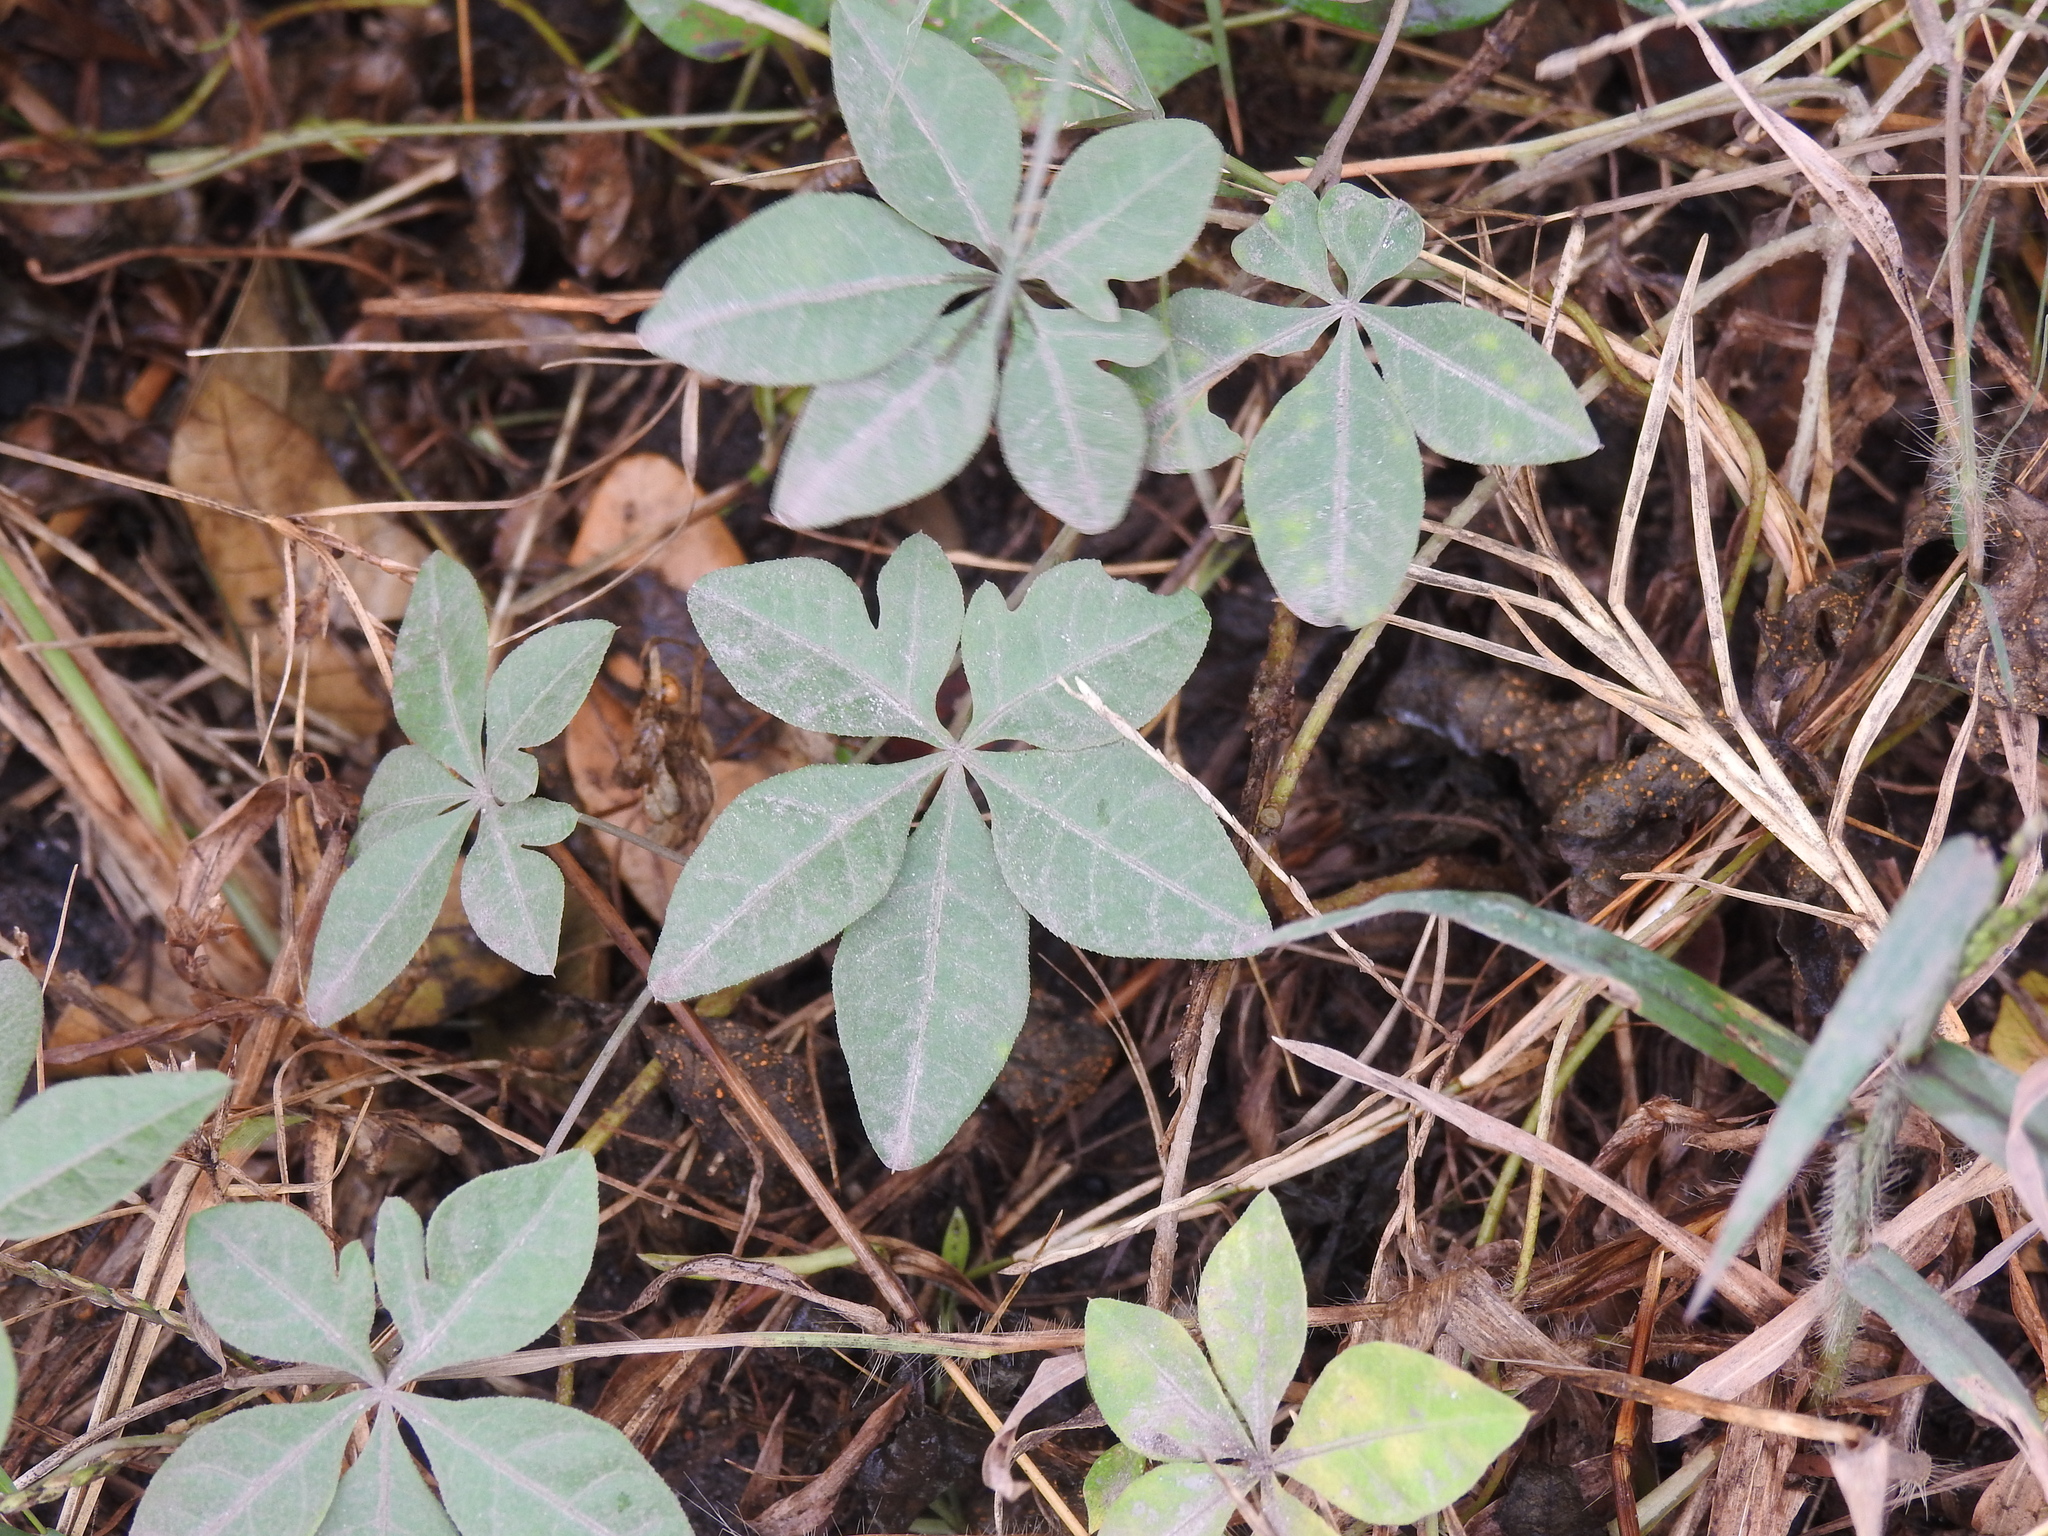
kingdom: Plantae
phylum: Tracheophyta
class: Magnoliopsida
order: Solanales
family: Convolvulaceae
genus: Ipomoea
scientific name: Ipomoea cairica
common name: Mile a minute vine
